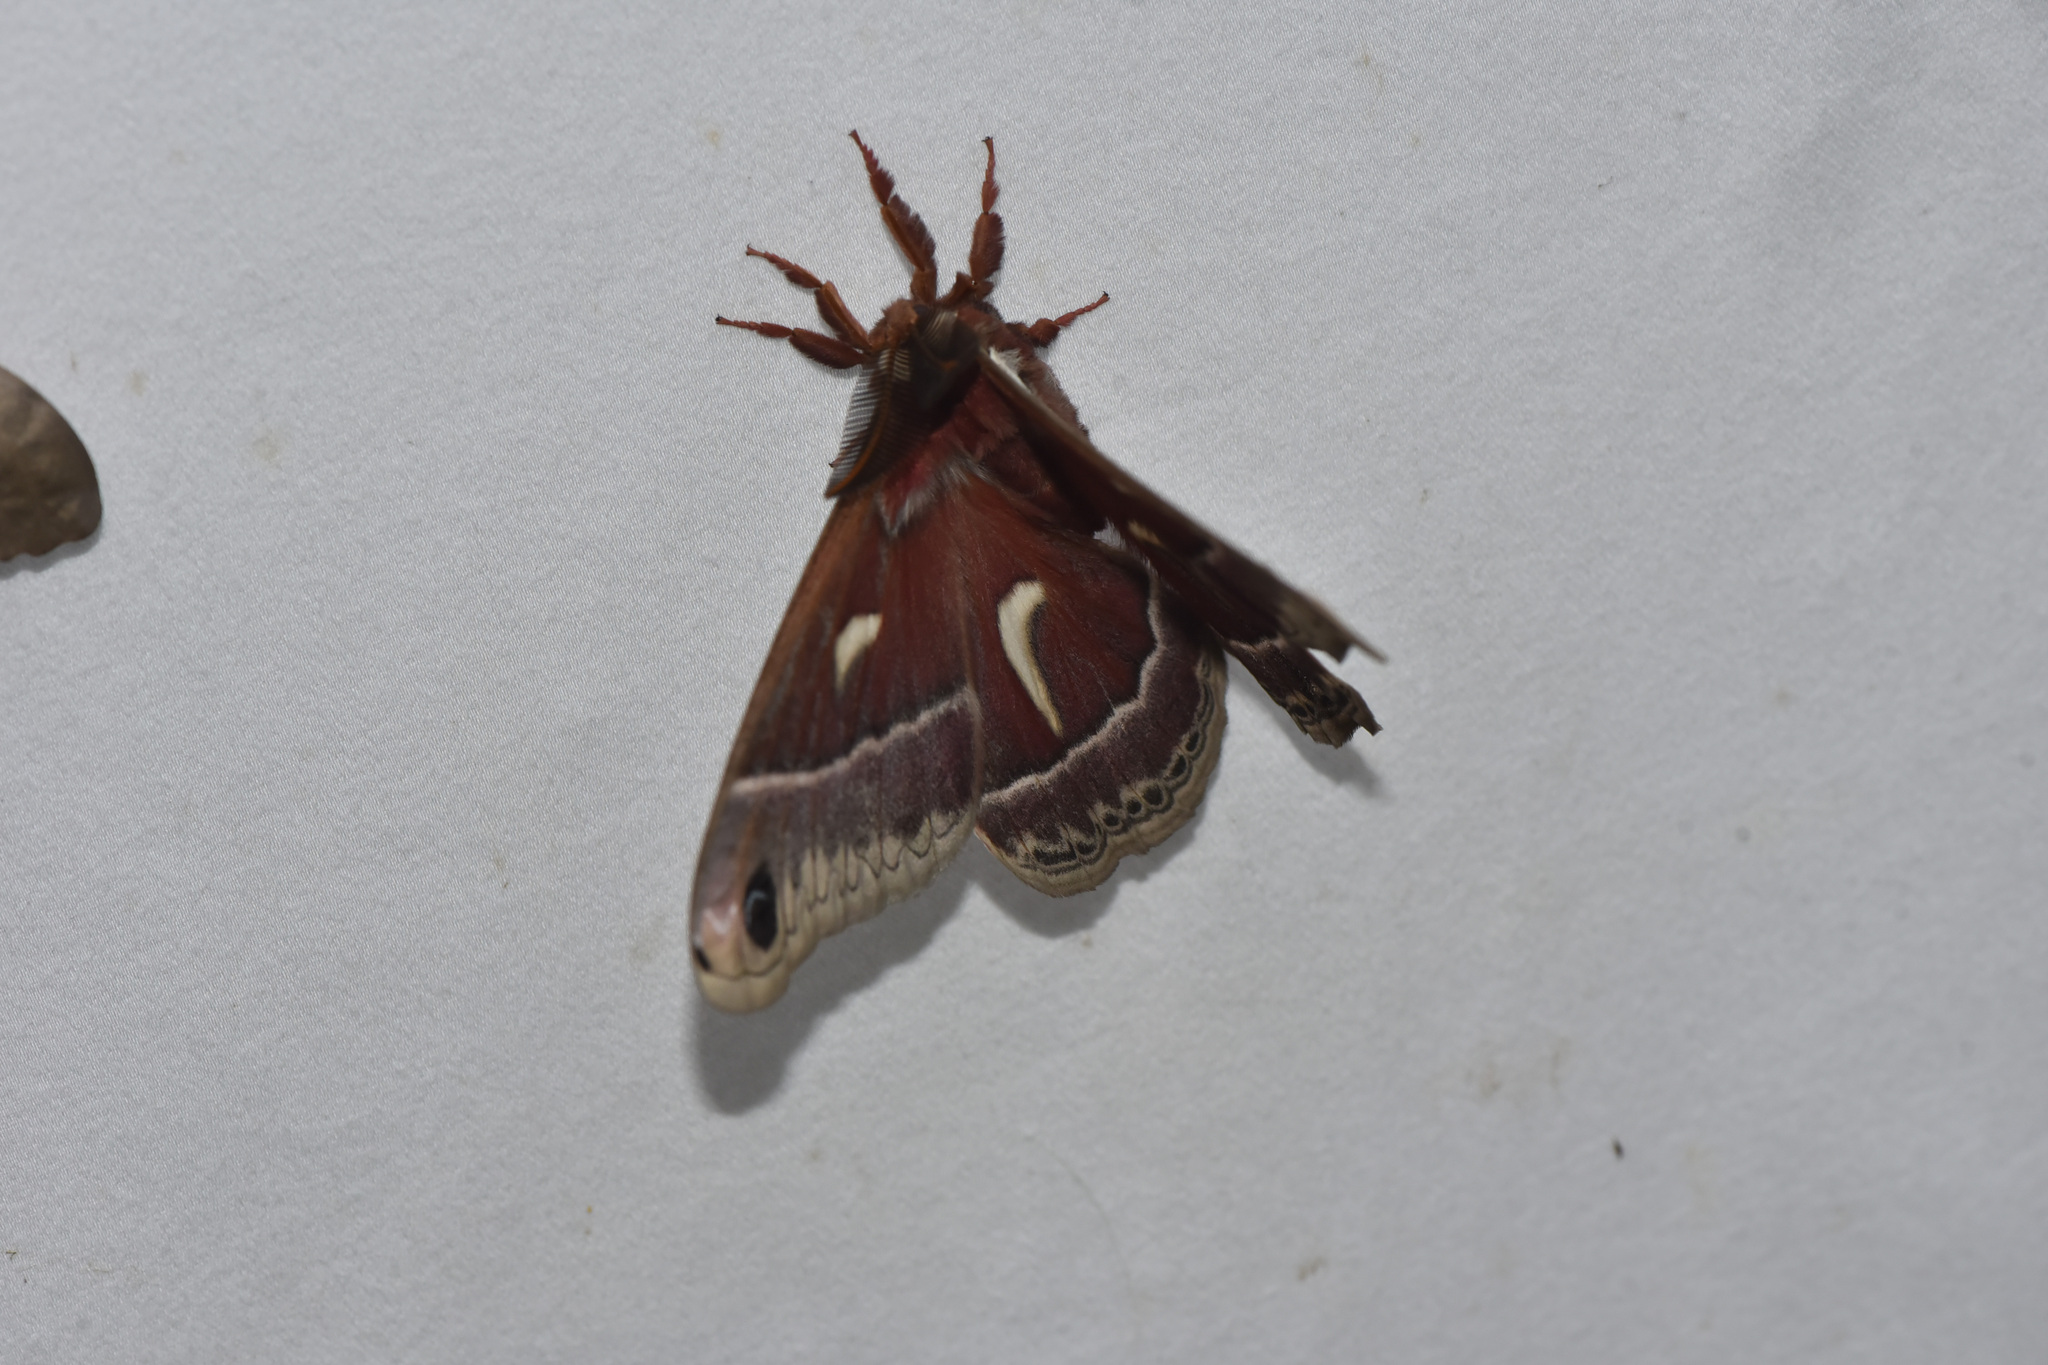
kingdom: Animalia
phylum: Arthropoda
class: Insecta
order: Lepidoptera
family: Saturniidae
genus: Hyalophora
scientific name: Hyalophora euryalus
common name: Ceanothus silkmoth
